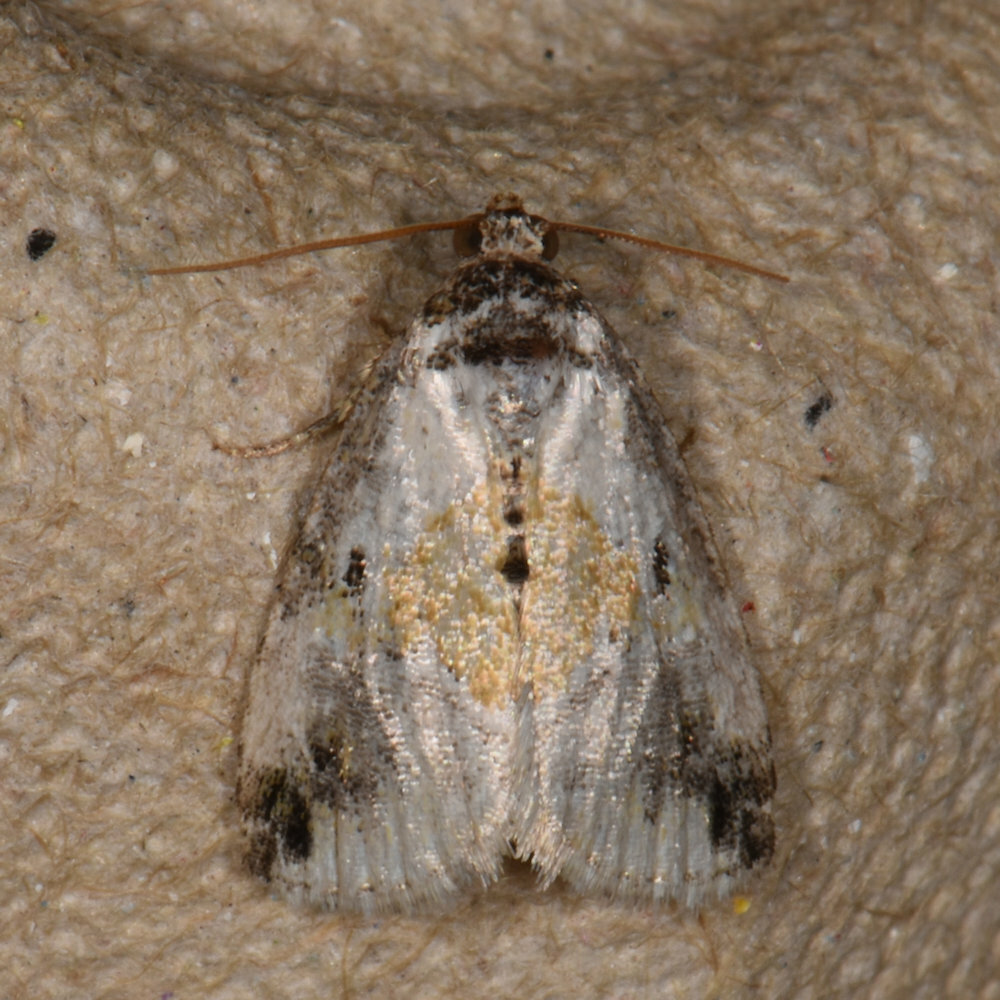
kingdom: Animalia
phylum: Arthropoda
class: Insecta
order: Lepidoptera
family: Noctuidae
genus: Maliattha
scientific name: Maliattha synochitis
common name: Black-dotted glyph
